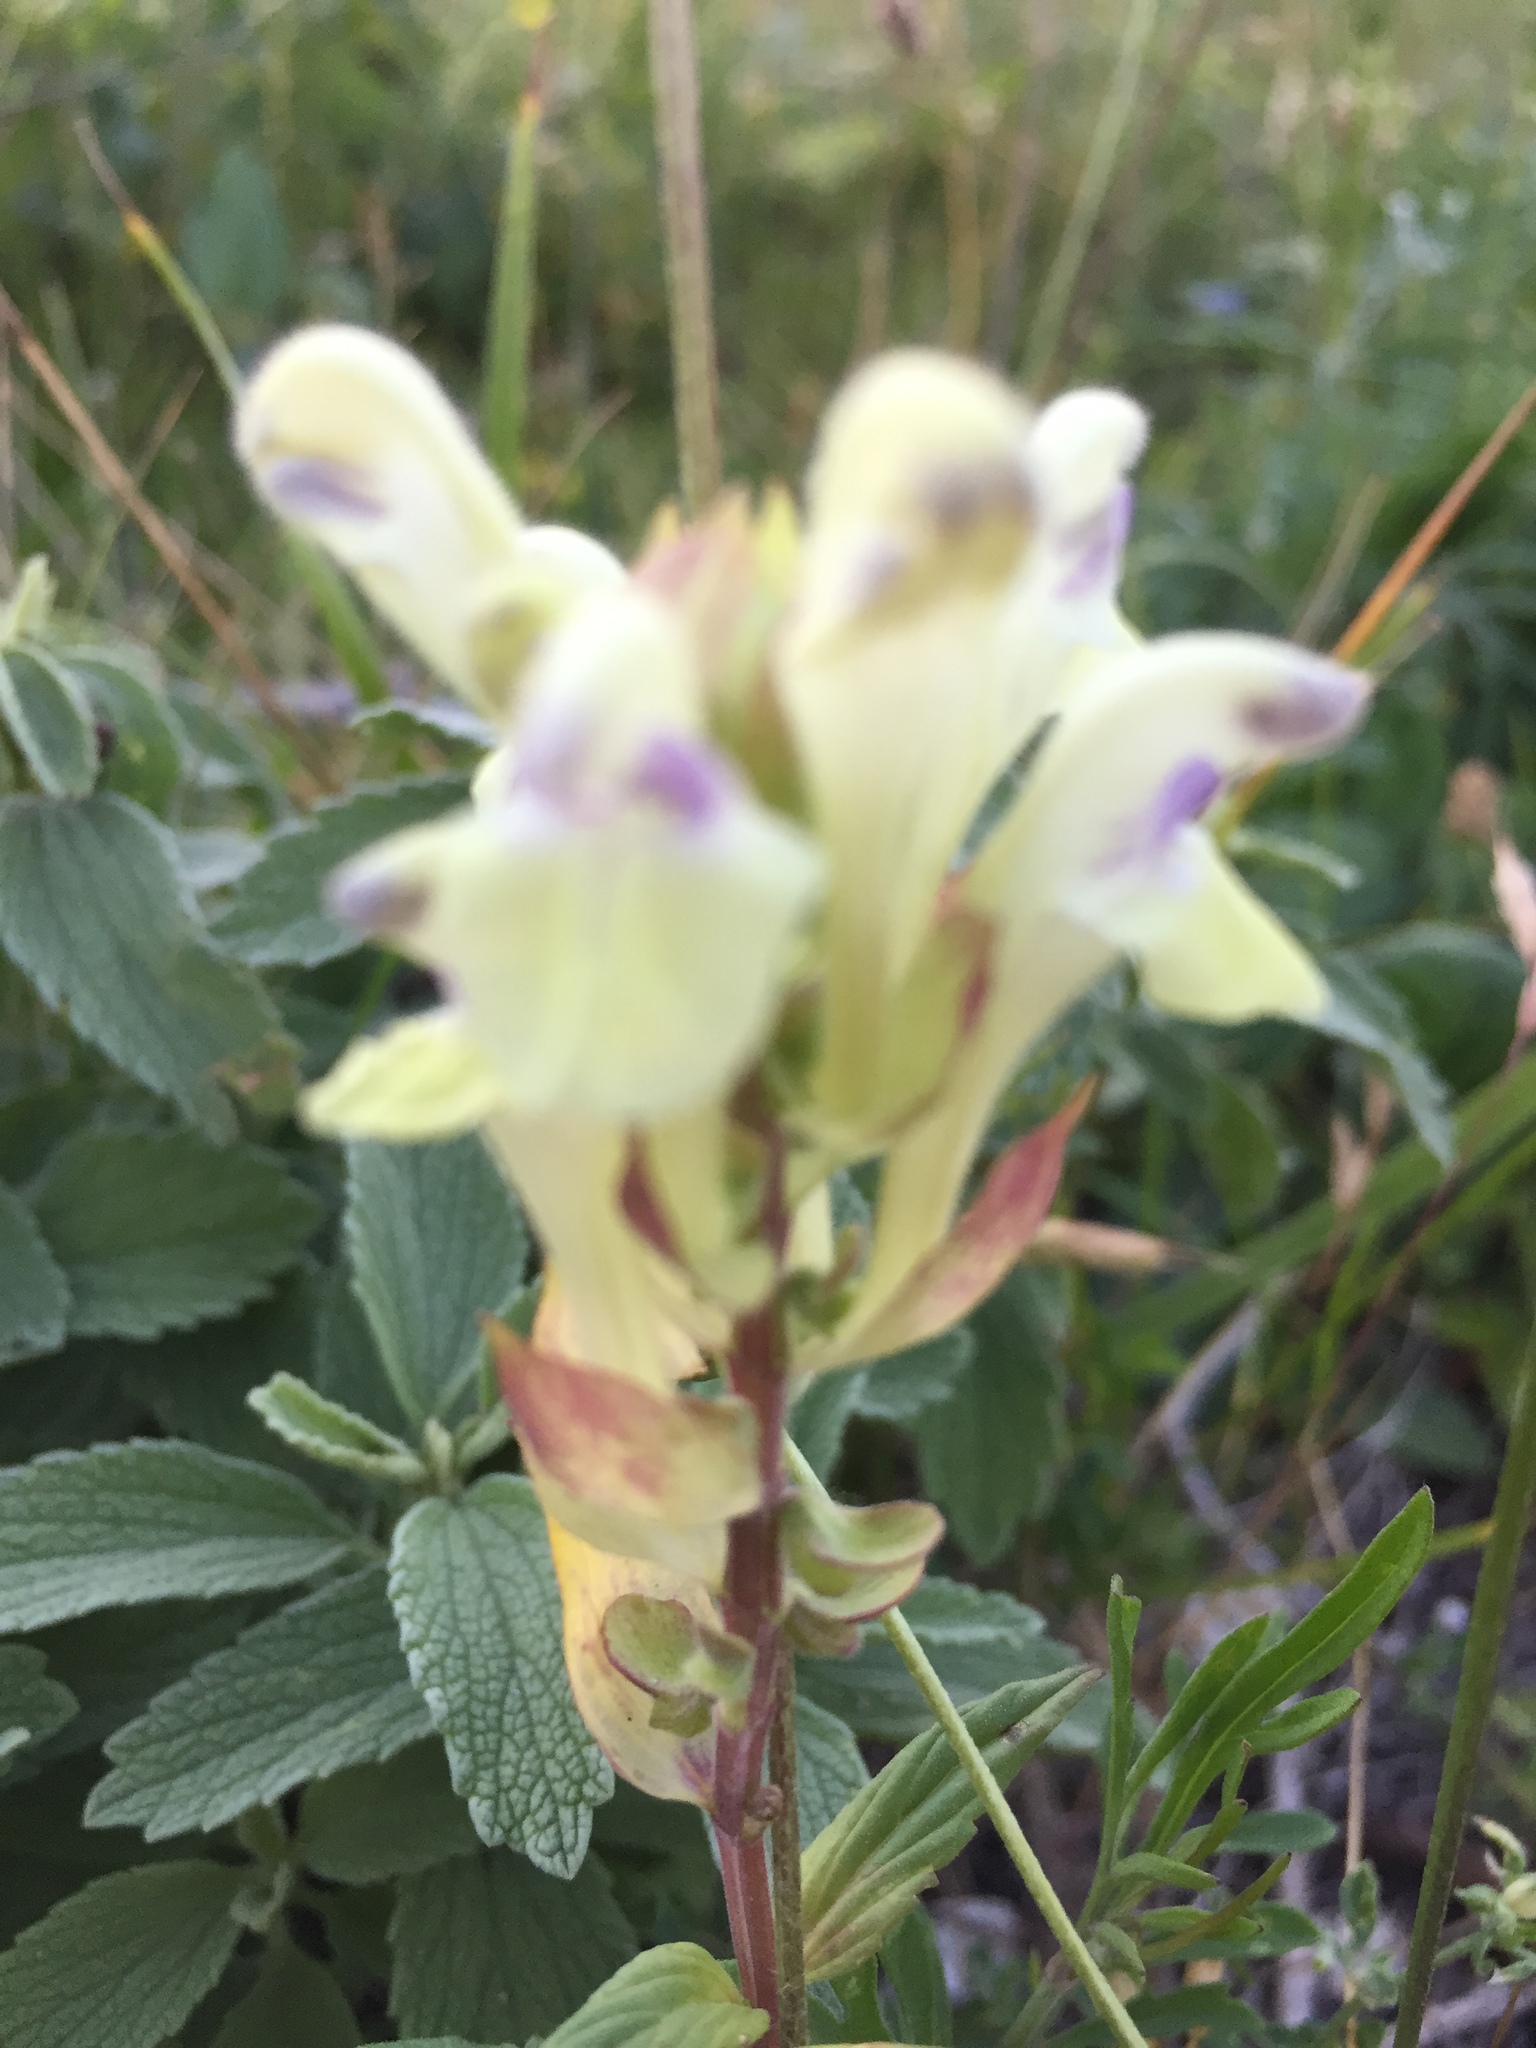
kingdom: Plantae
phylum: Tracheophyta
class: Magnoliopsida
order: Lamiales
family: Lamiaceae
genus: Scutellaria
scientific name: Scutellaria supina
